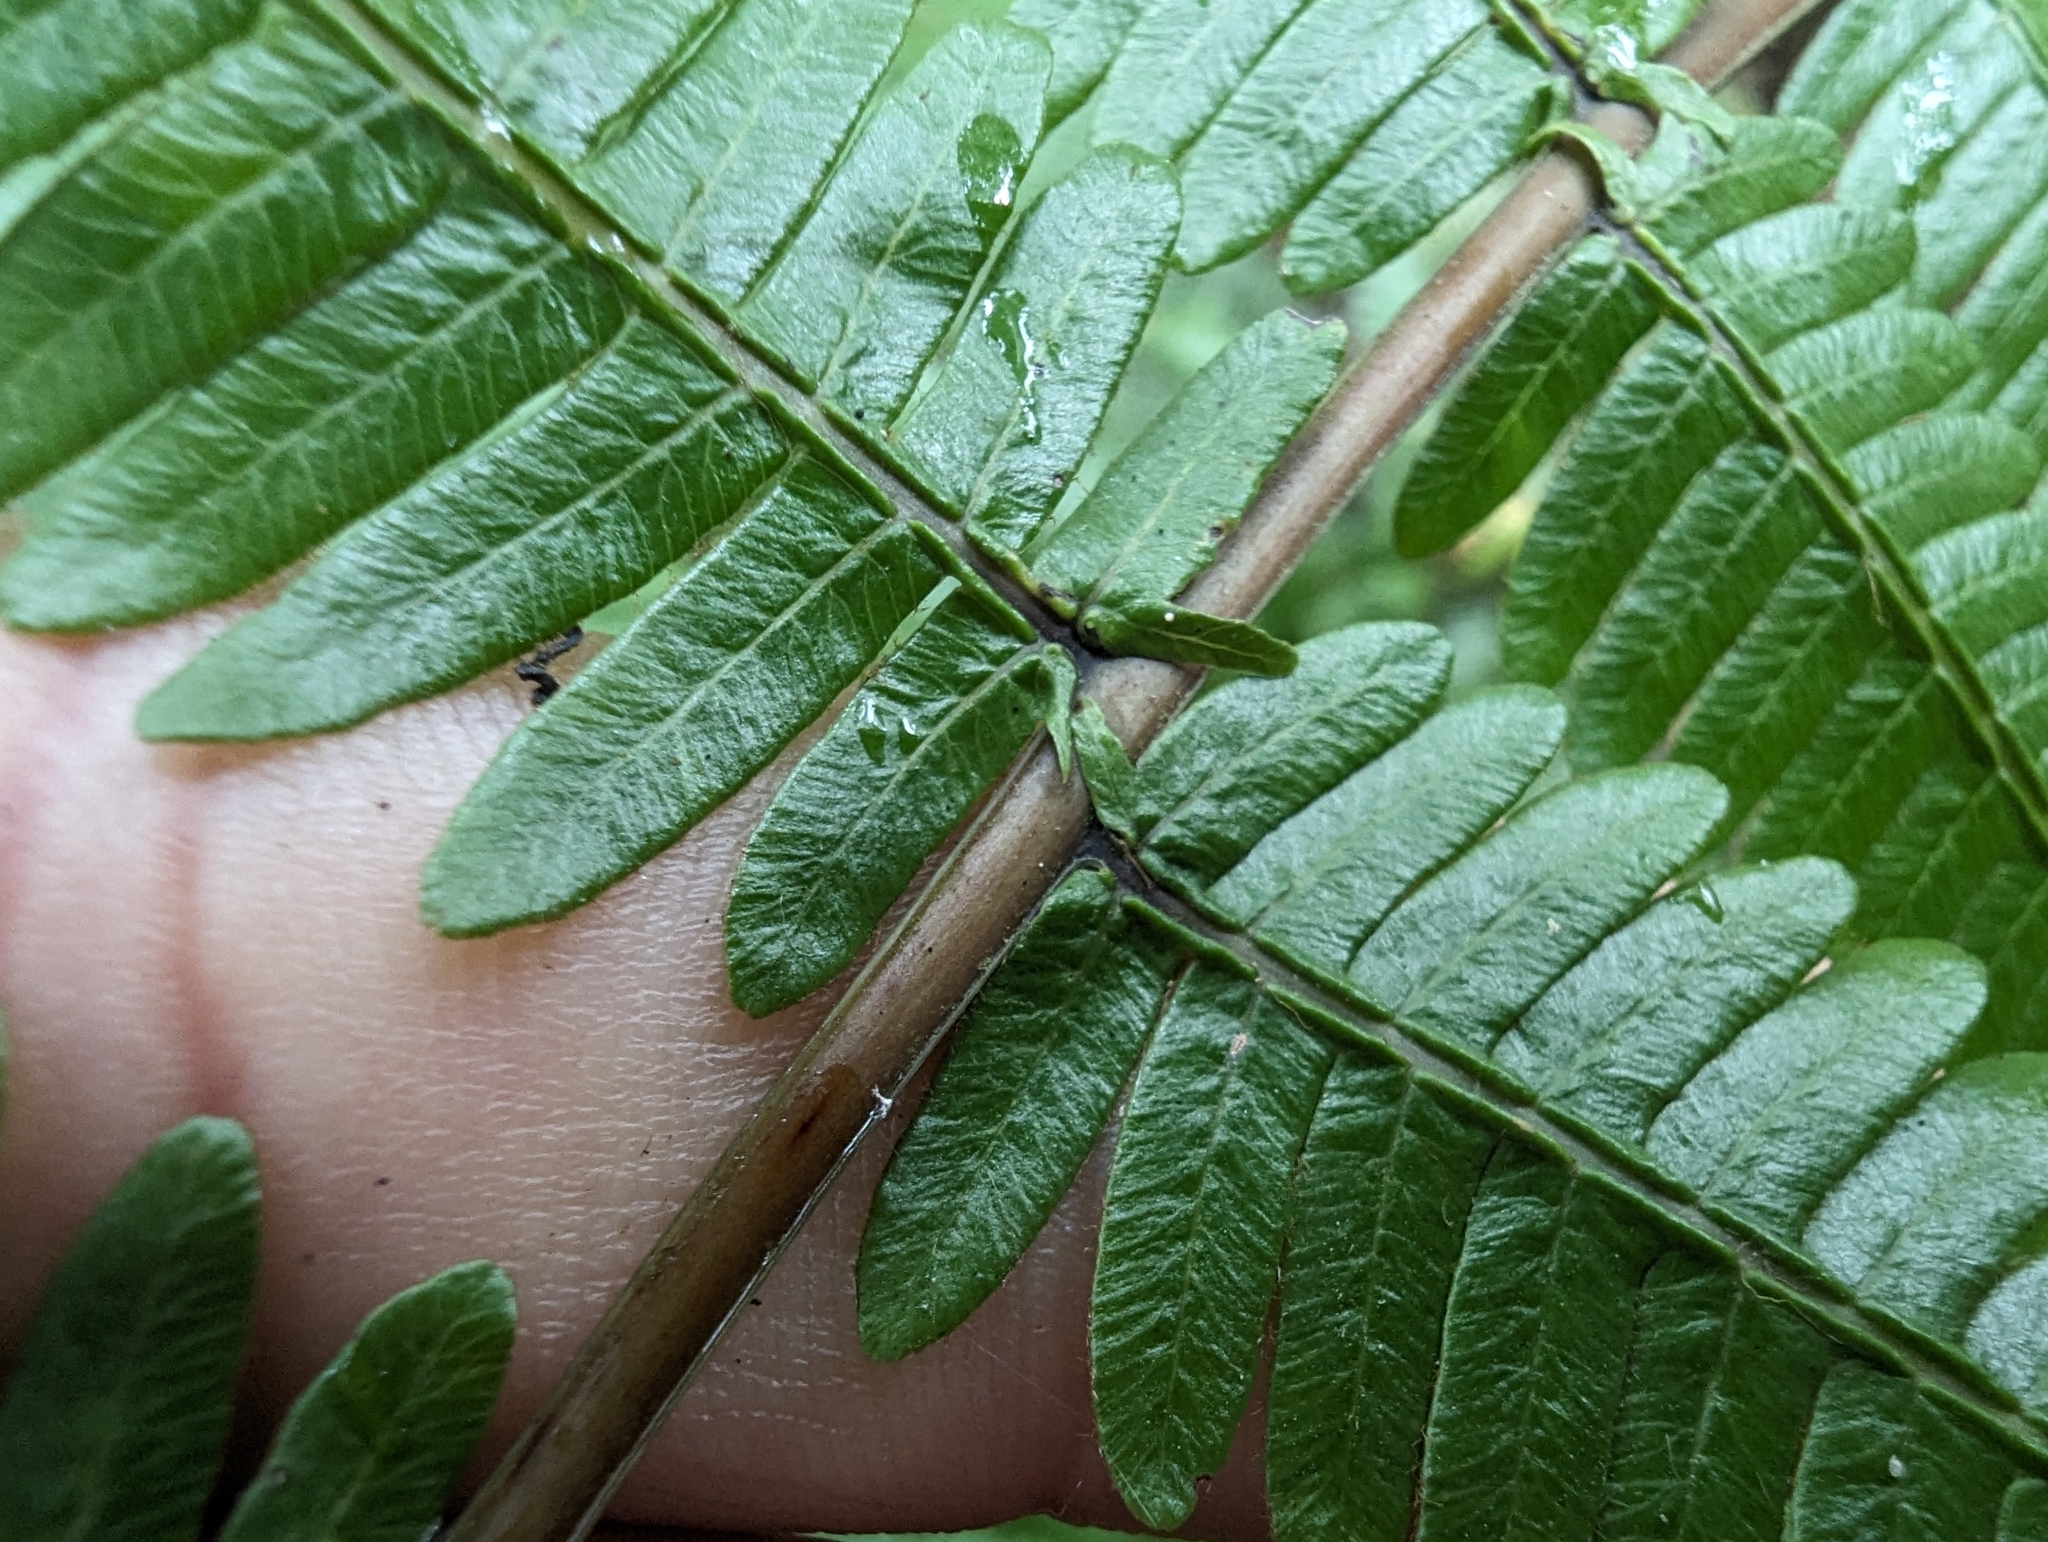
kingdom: Plantae
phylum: Tracheophyta
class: Polypodiopsida
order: Gleicheniales
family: Gleicheniaceae
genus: Diplopterygium
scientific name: Diplopterygium glaucum
